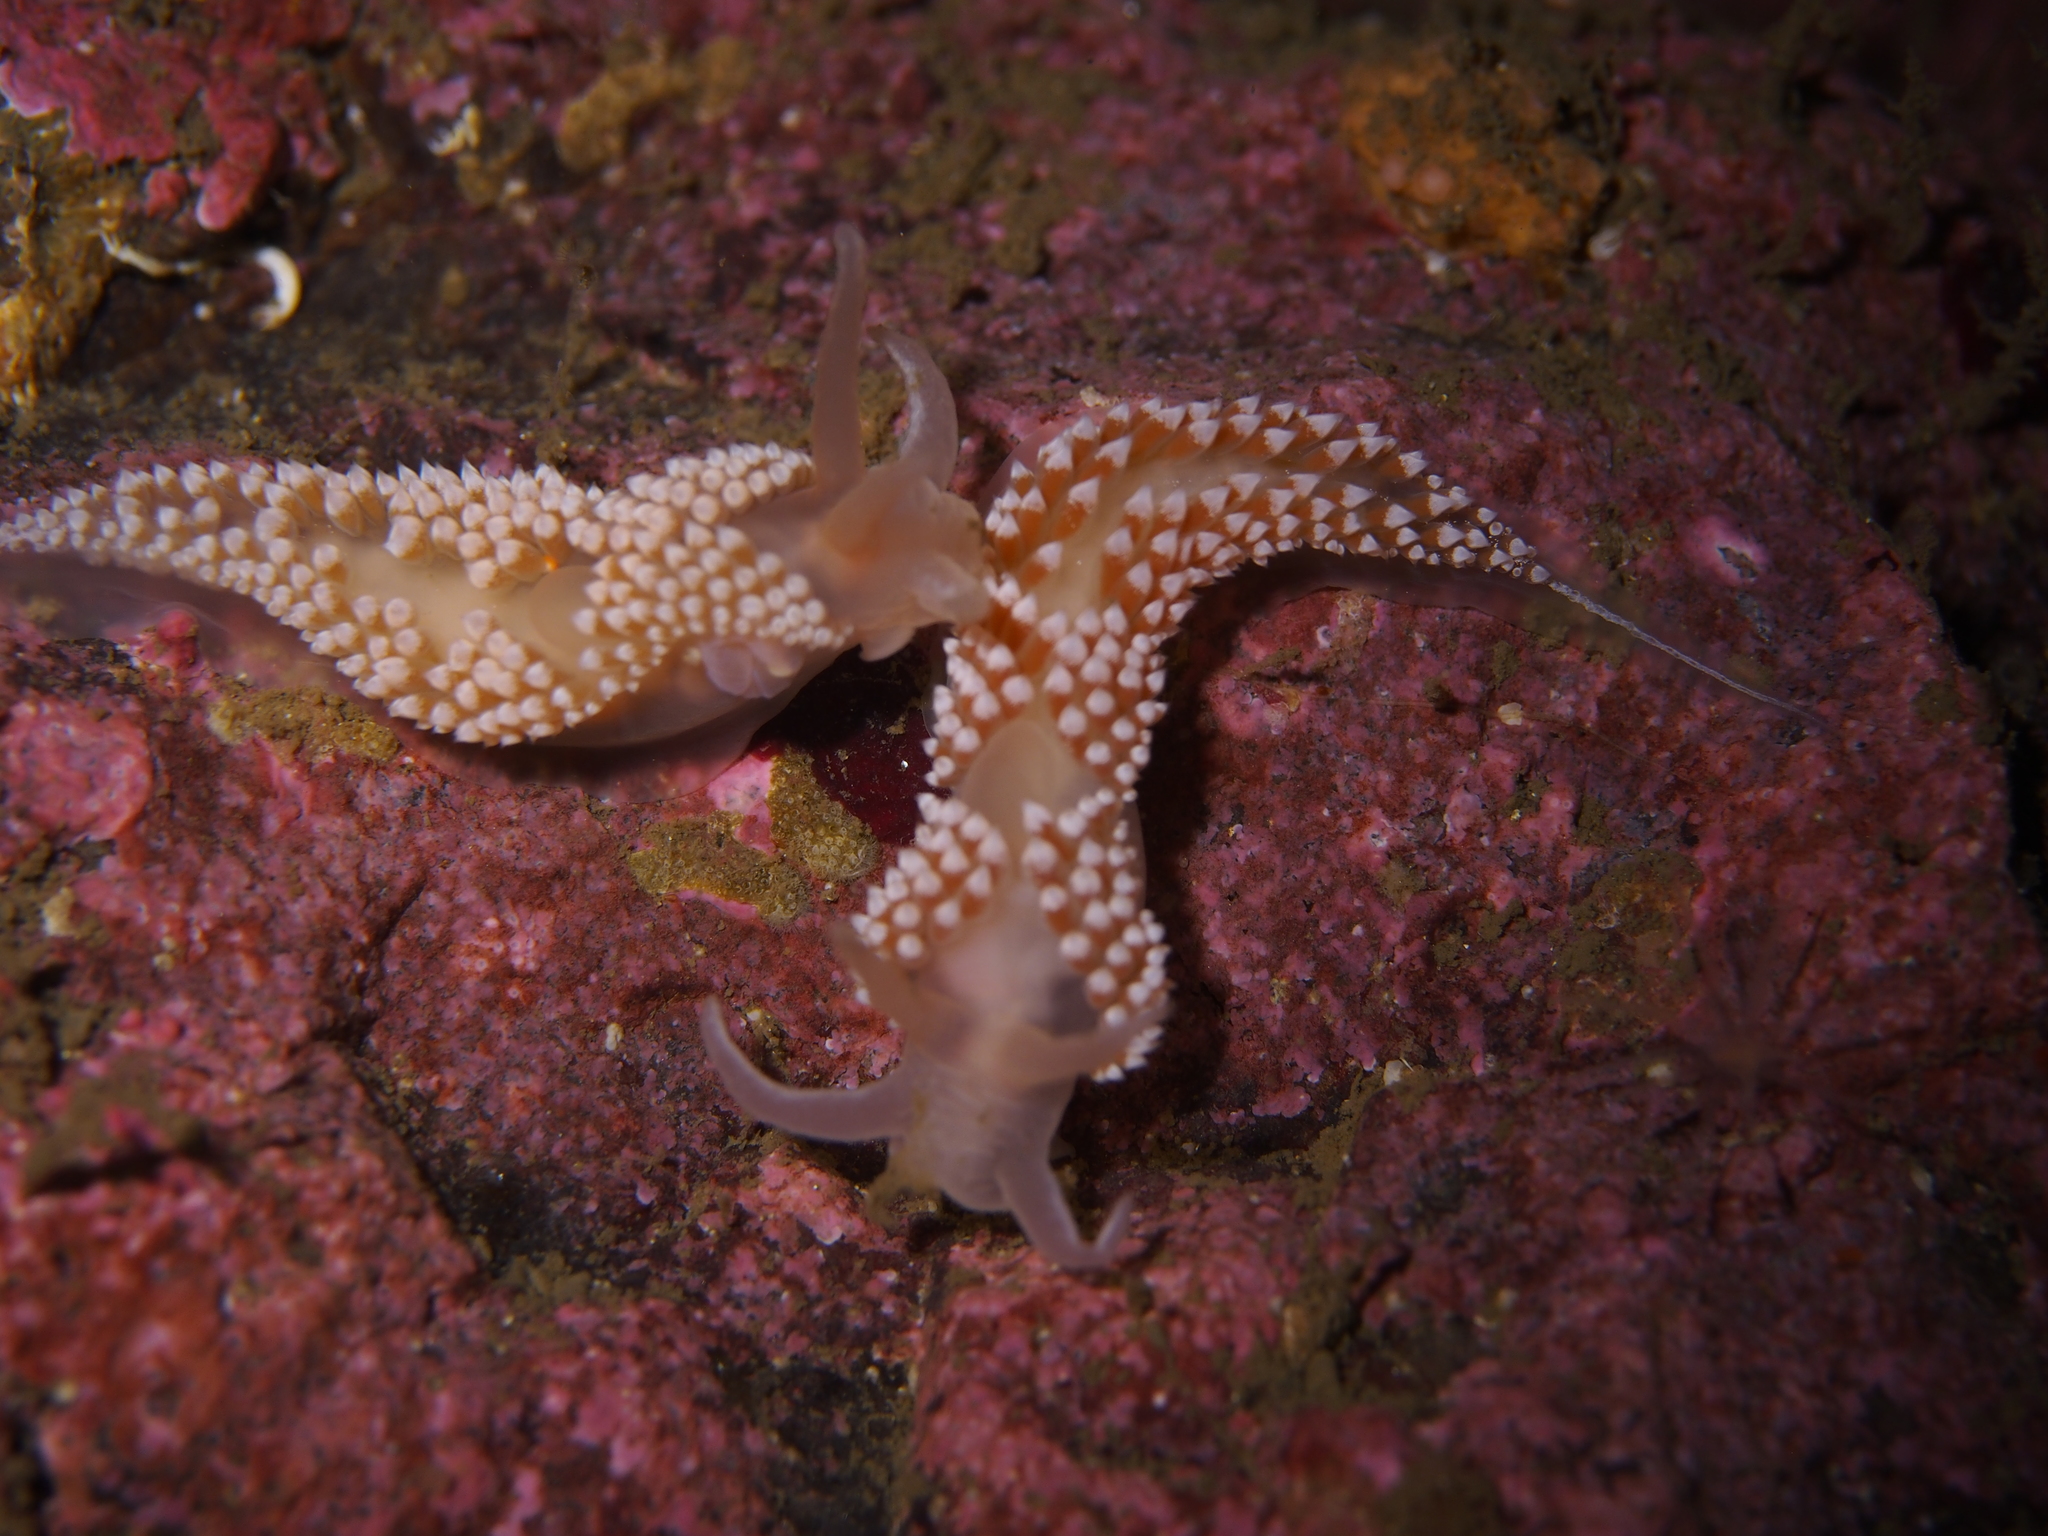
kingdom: Animalia
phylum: Mollusca
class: Gastropoda
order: Nudibranchia
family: Coryphellidae
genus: Coryphella
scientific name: Coryphella verrucosa
